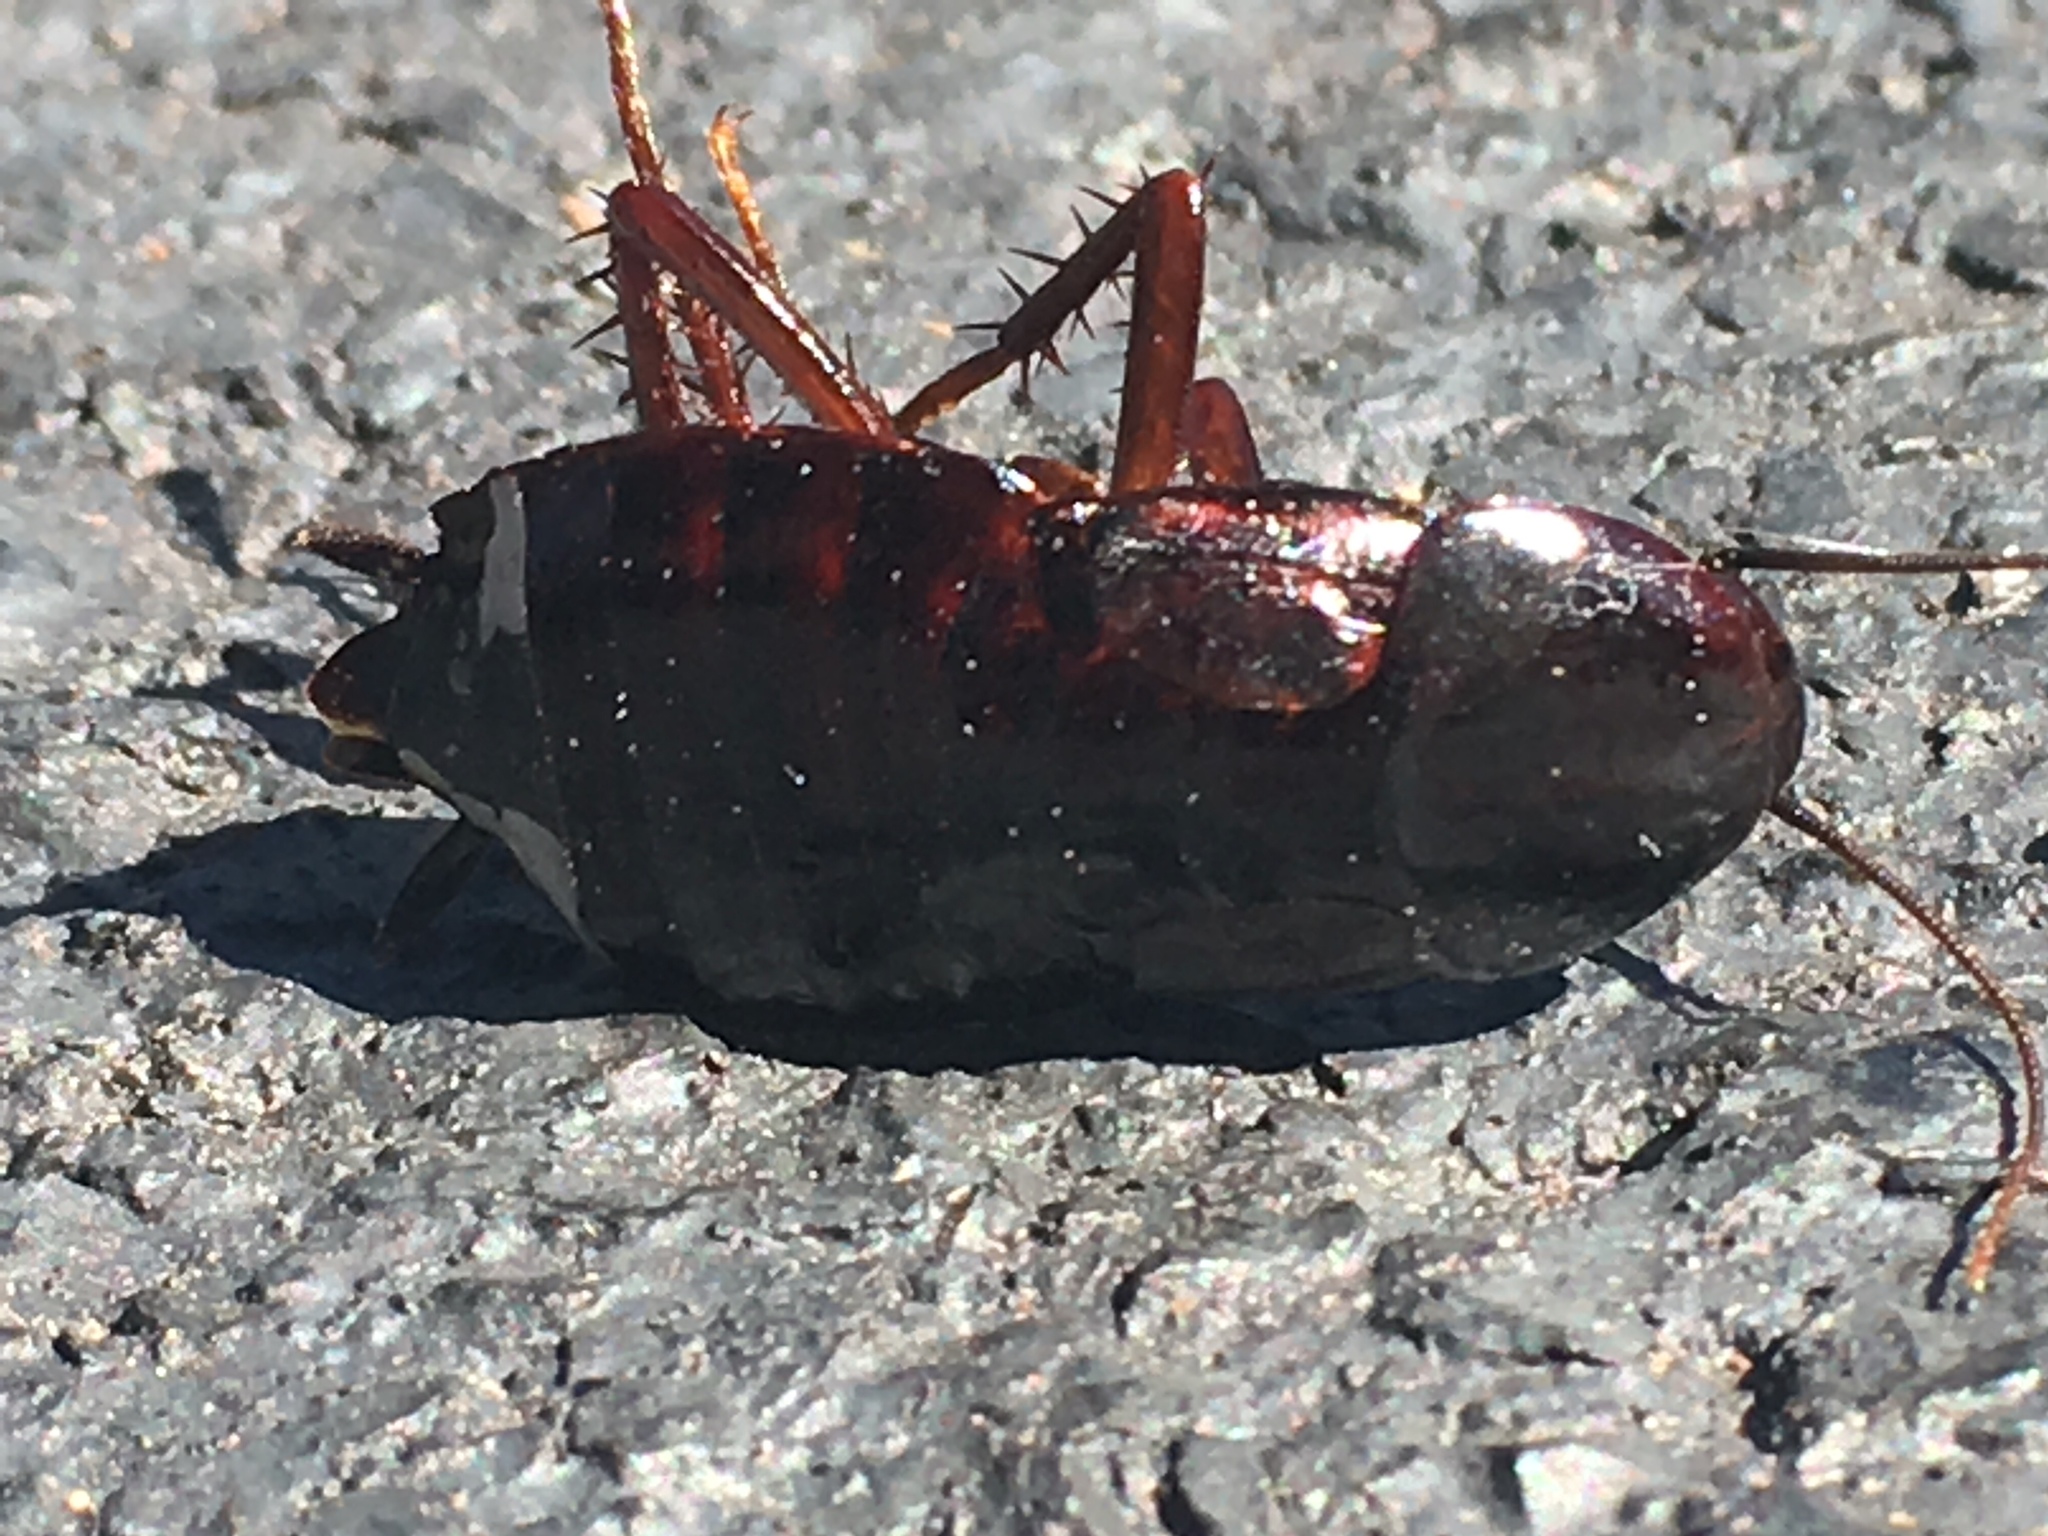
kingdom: Animalia
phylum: Arthropoda
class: Insecta
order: Blattodea
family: Blattidae
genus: Blatta
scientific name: Blatta orientalis
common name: Oriental cockroach
